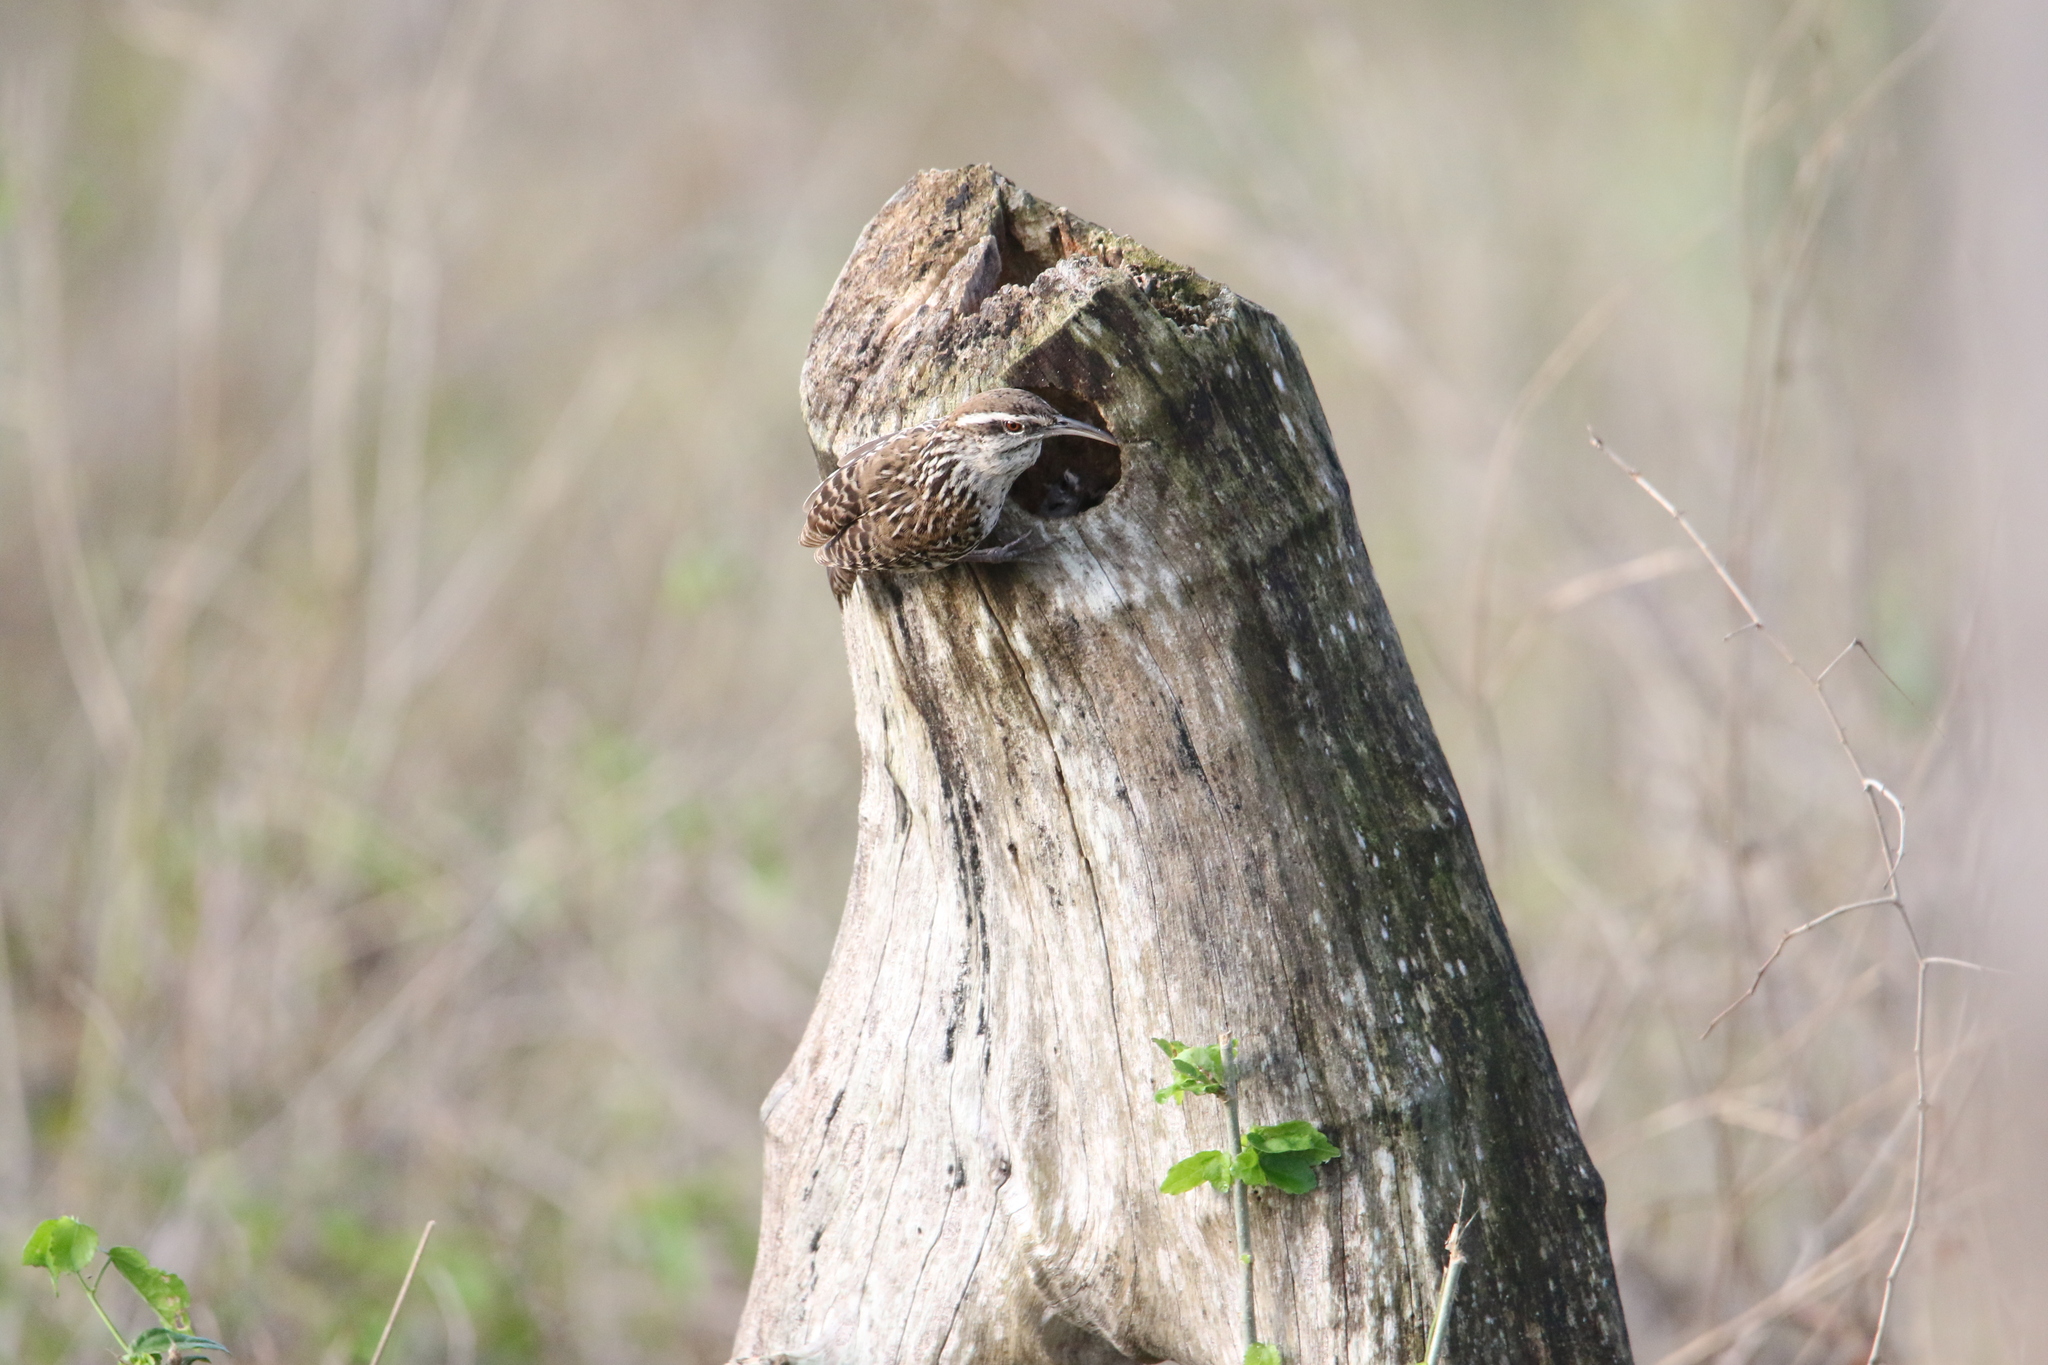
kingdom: Animalia
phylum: Chordata
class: Aves
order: Passeriformes
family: Troglodytidae
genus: Campylorhynchus
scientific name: Campylorhynchus yucatanicus
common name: Yucatan wren
